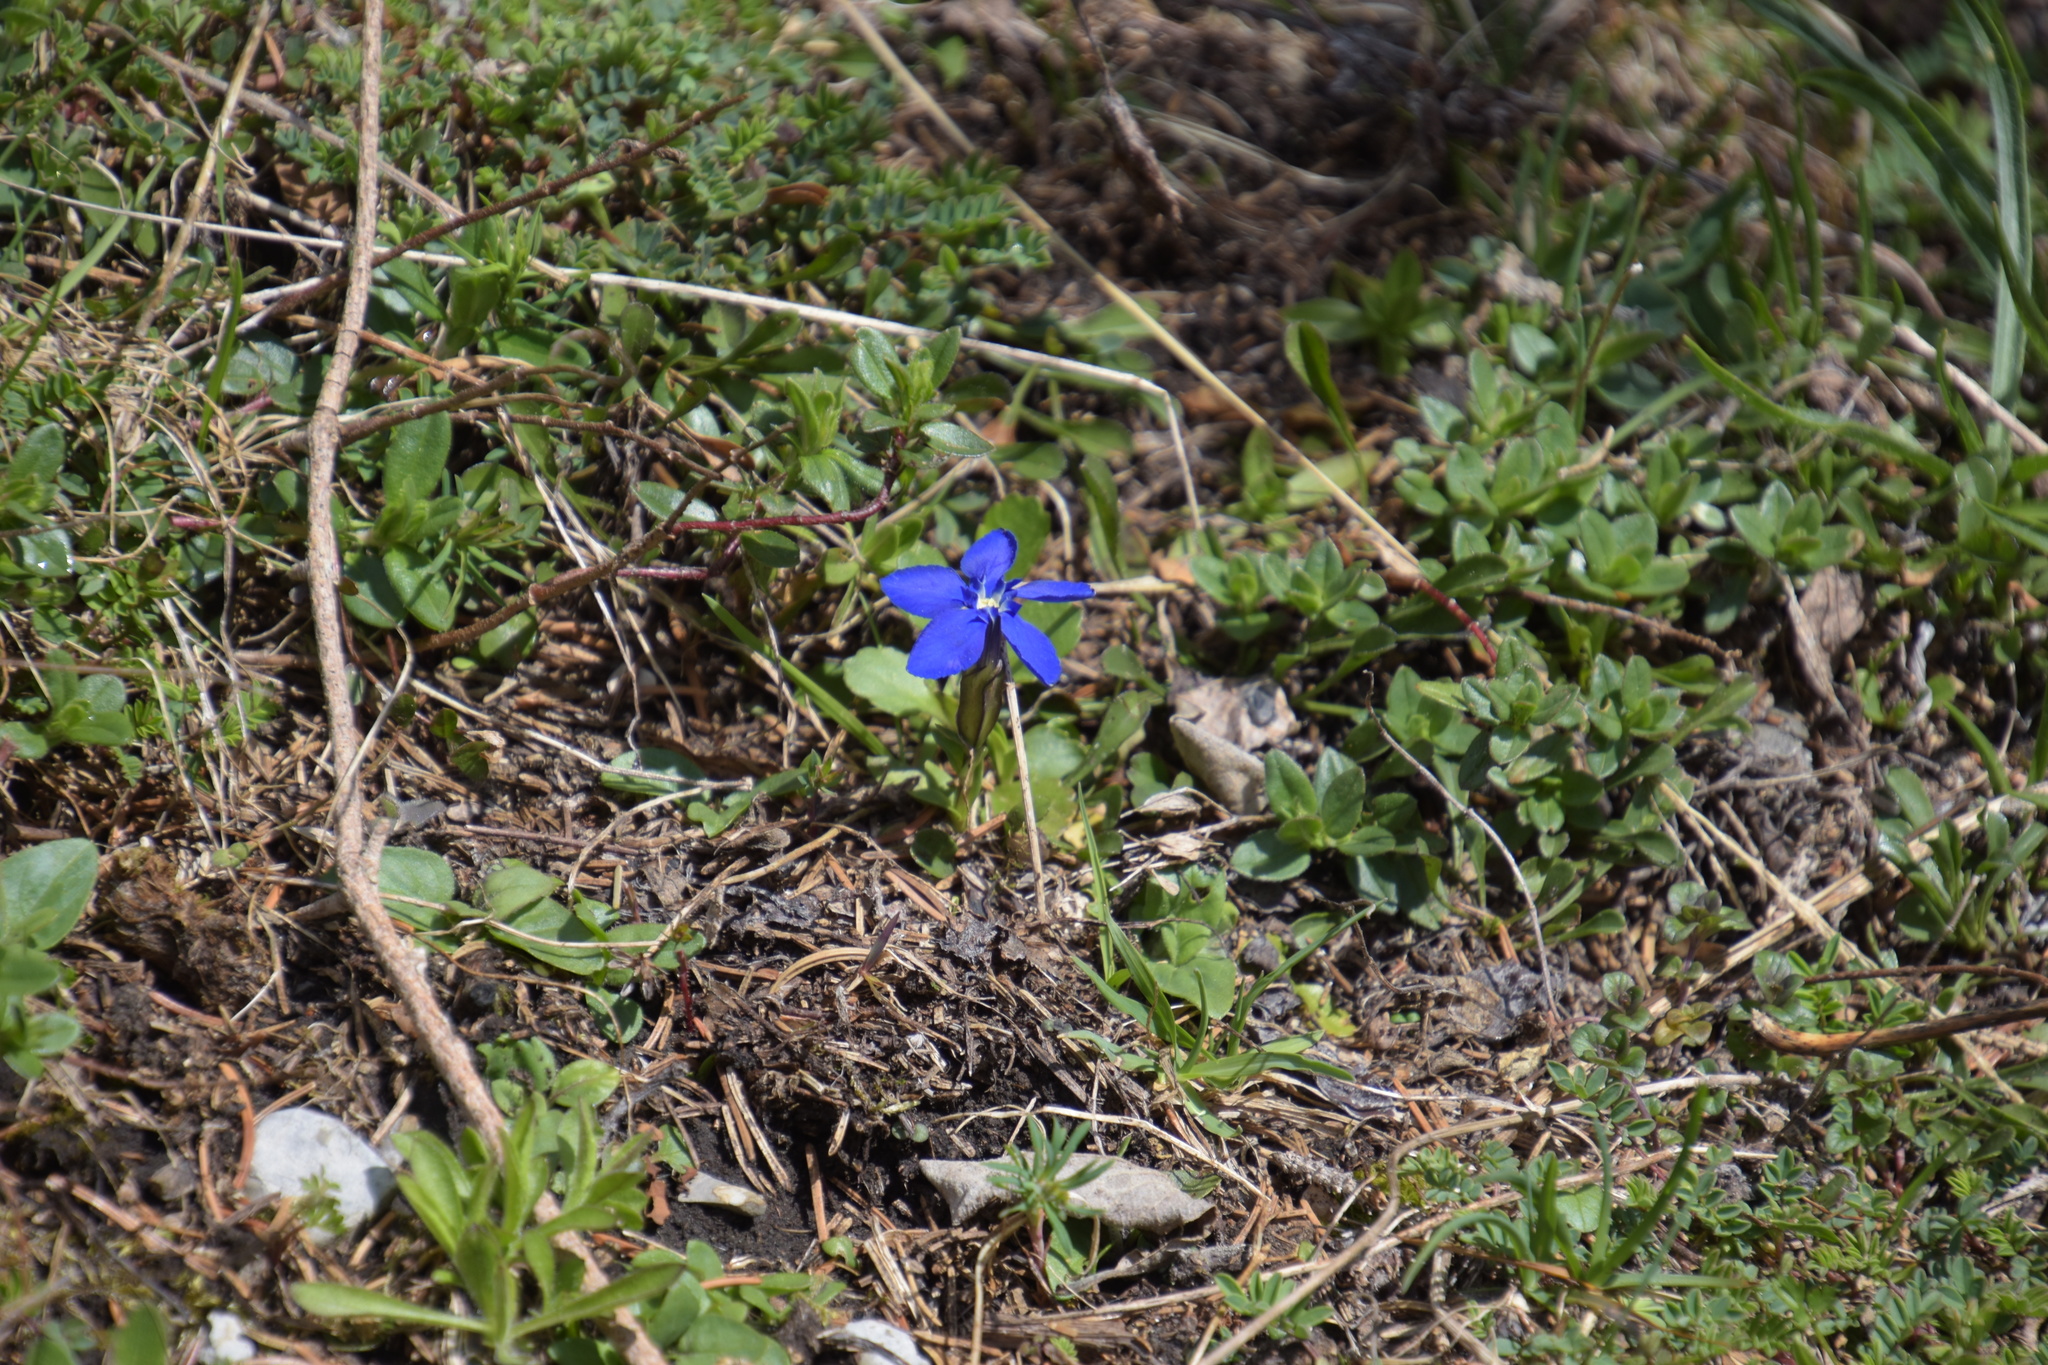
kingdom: Plantae
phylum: Tracheophyta
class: Magnoliopsida
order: Gentianales
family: Gentianaceae
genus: Gentiana
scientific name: Gentiana verna
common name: Spring gentian
